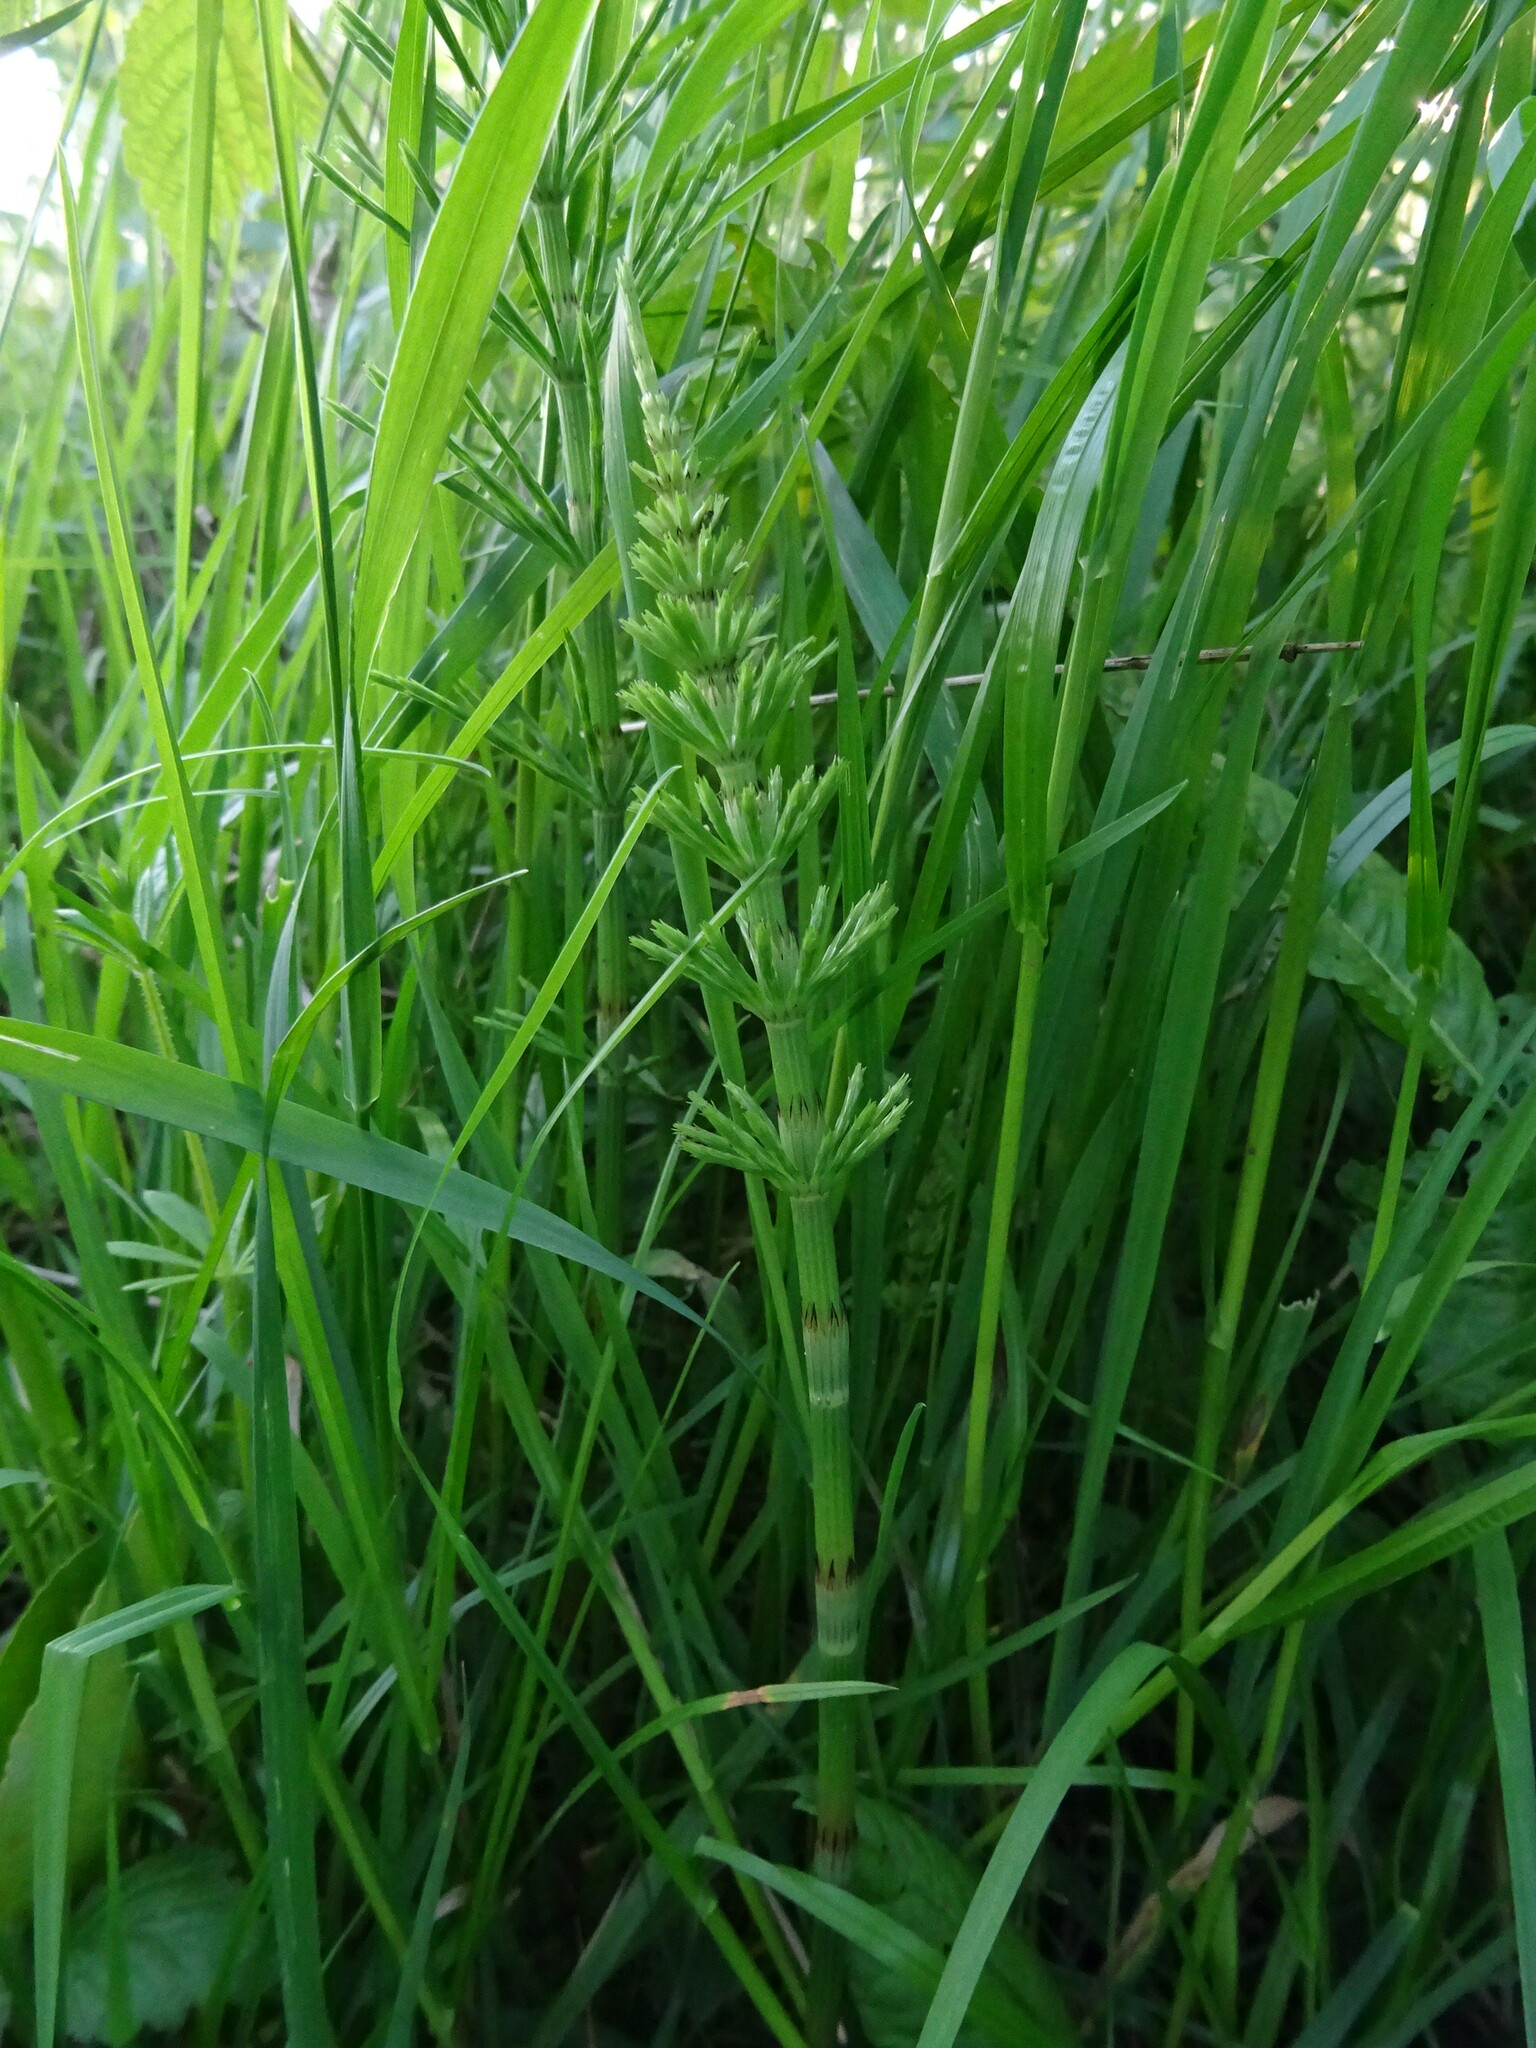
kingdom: Plantae
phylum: Tracheophyta
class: Polypodiopsida
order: Equisetales
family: Equisetaceae
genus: Equisetum
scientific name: Equisetum arvense
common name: Field horsetail
